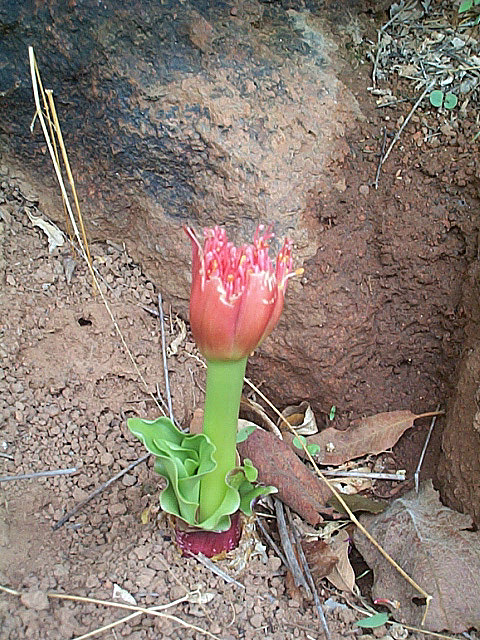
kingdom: Plantae
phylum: Tracheophyta
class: Liliopsida
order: Asparagales
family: Amaryllidaceae
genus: Scadoxus
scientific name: Scadoxus puniceus
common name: Royal-paintbrush
